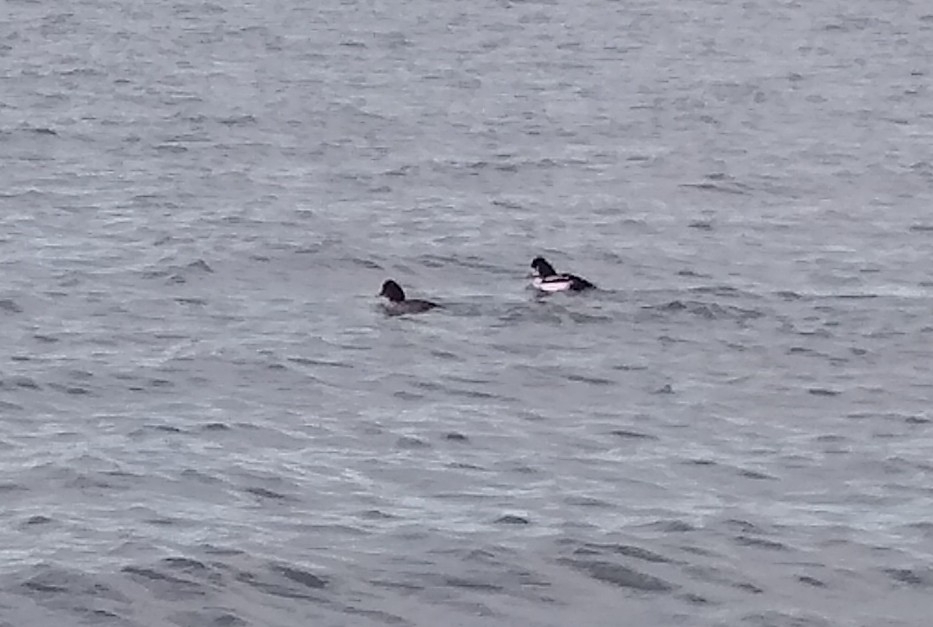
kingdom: Animalia
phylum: Chordata
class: Aves
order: Anseriformes
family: Anatidae
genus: Bucephala
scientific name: Bucephala islandica
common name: Barrow's goldeneye
